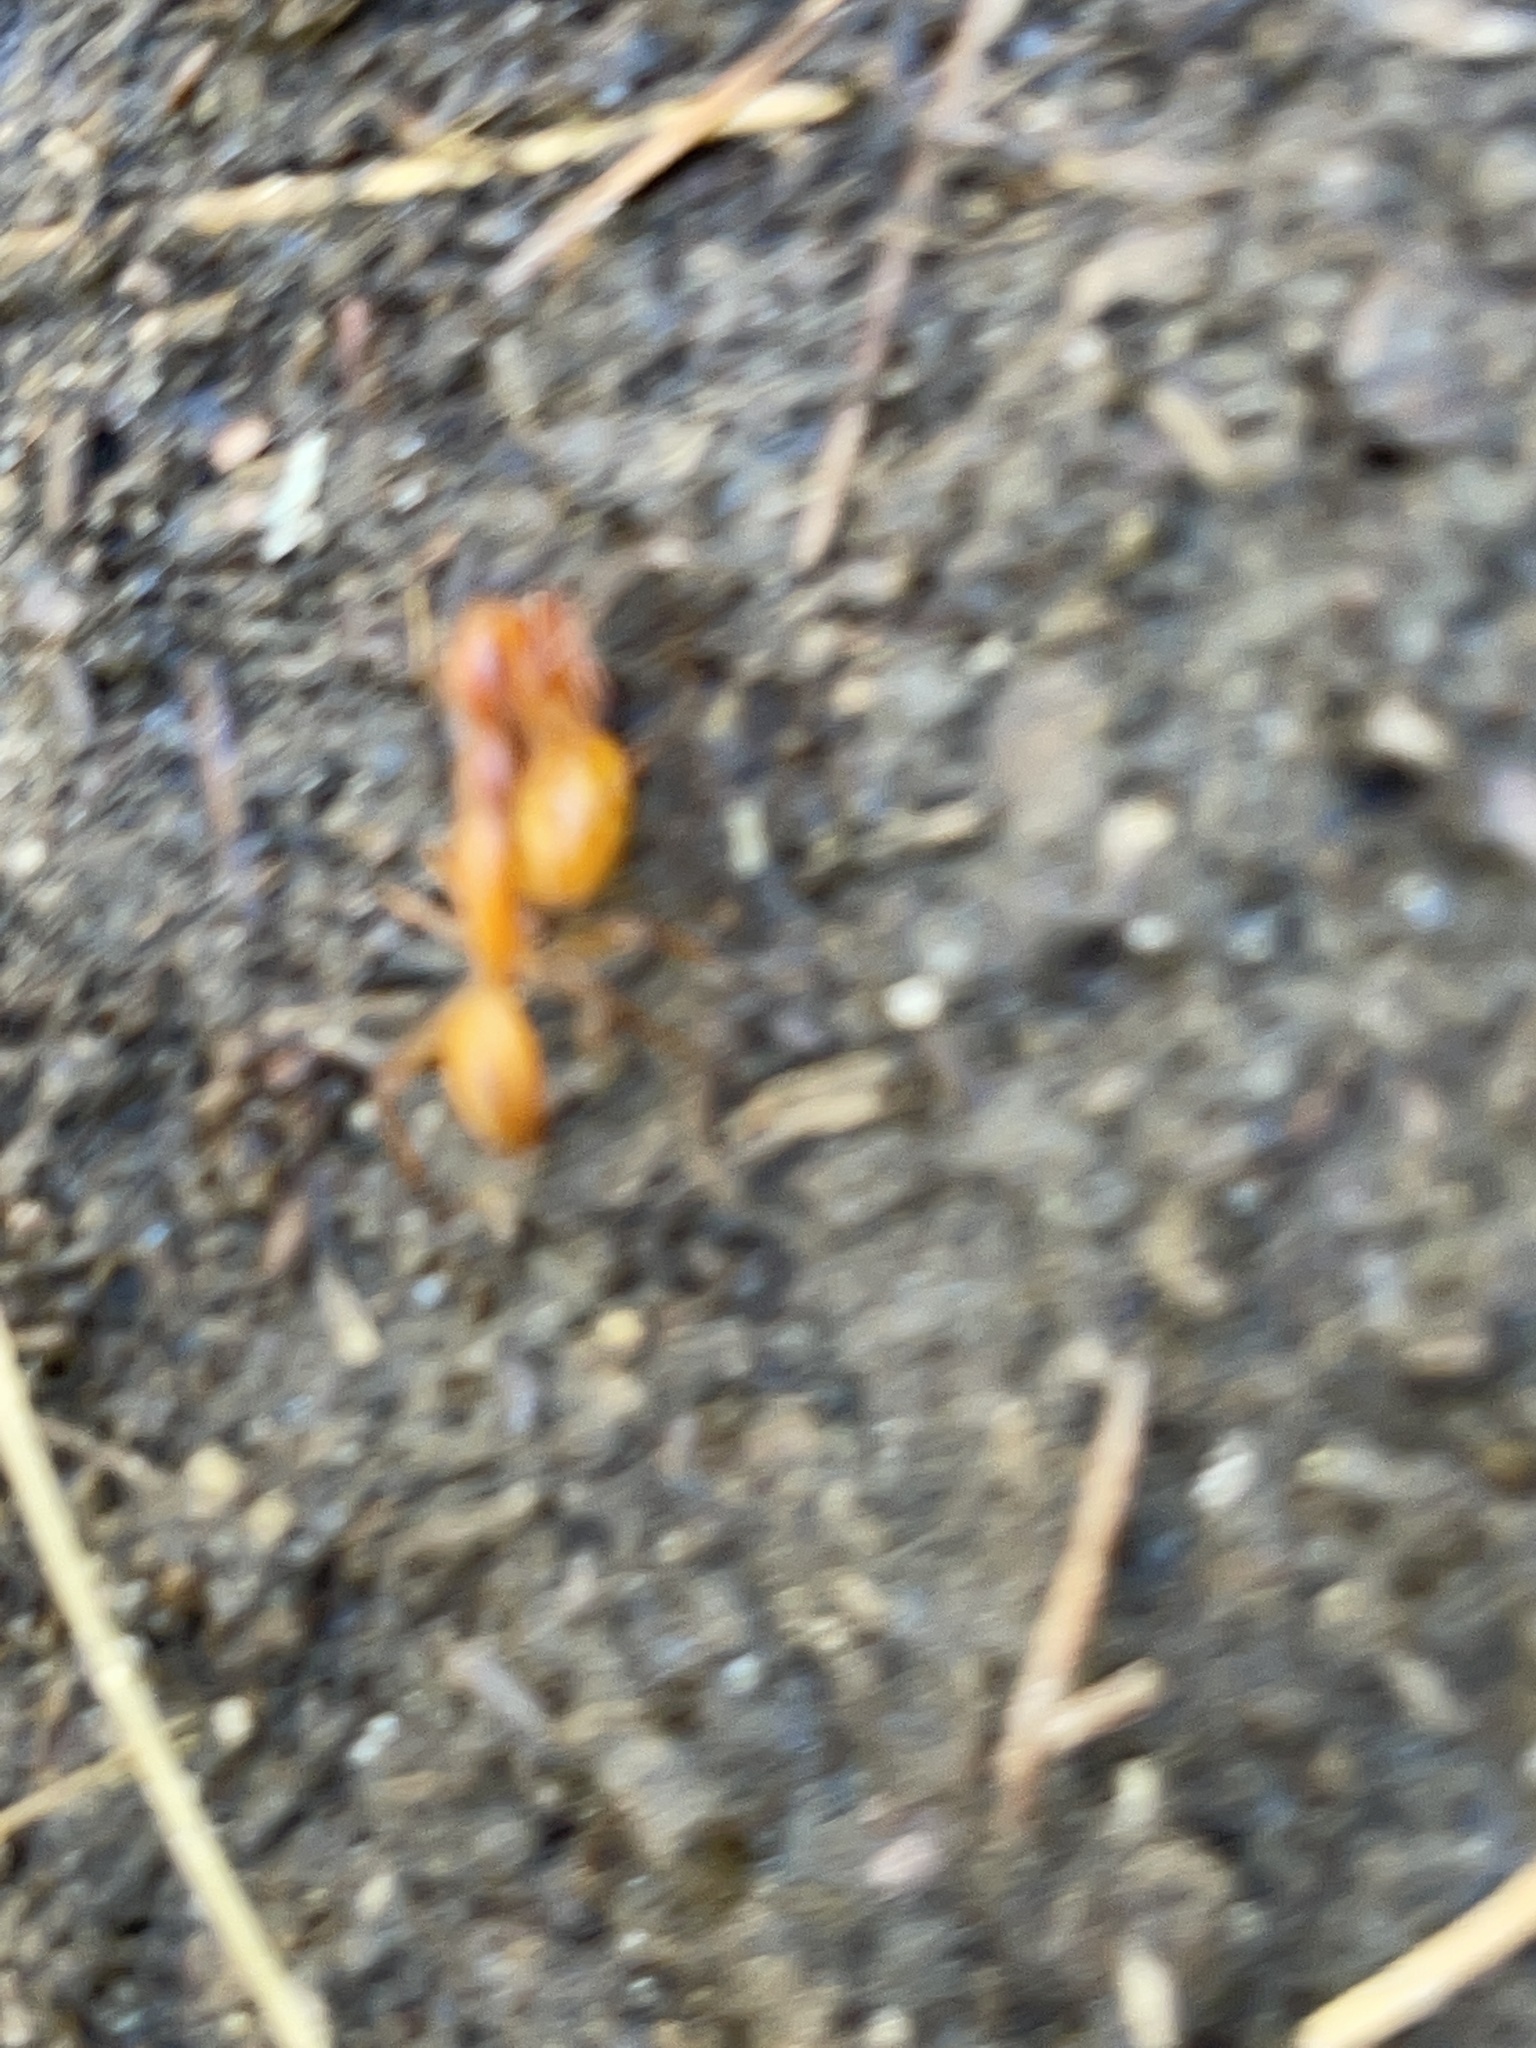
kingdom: Animalia
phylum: Arthropoda
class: Insecta
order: Hymenoptera
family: Formicidae
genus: Camponotus
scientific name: Camponotus castaneus
